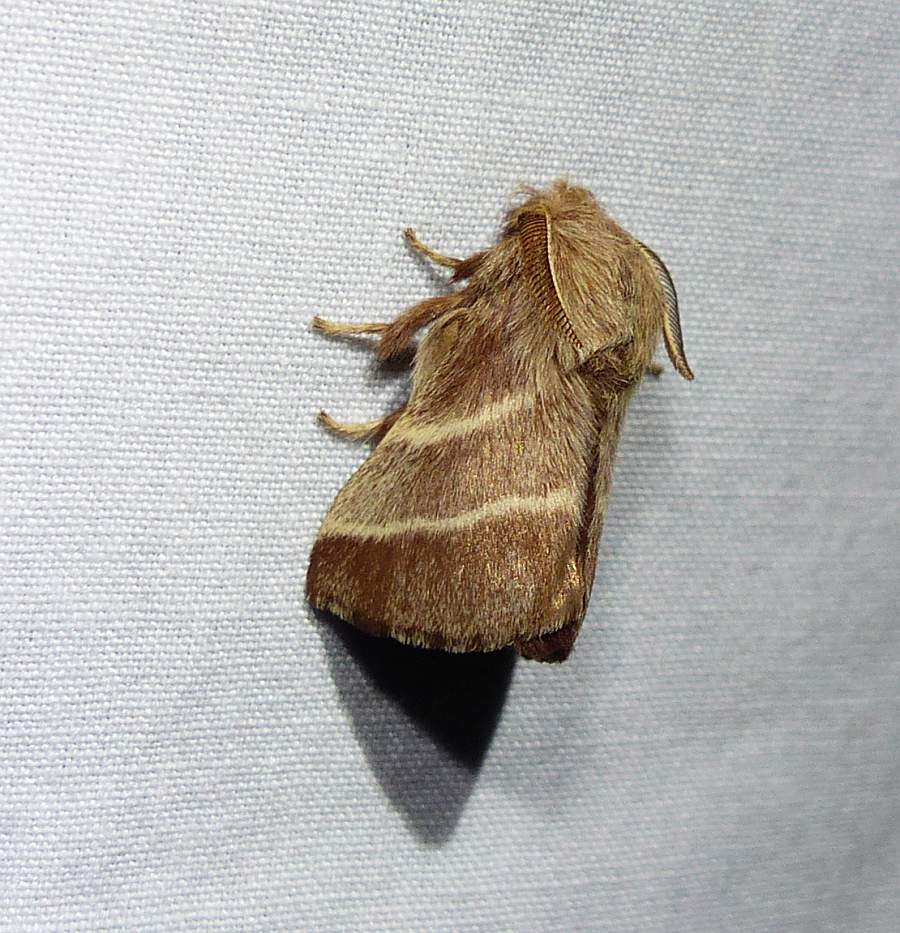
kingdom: Animalia
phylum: Arthropoda
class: Insecta
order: Lepidoptera
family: Lasiocampidae
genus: Malacosoma
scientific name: Malacosoma americana
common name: Eastern tent caterpillar moth
